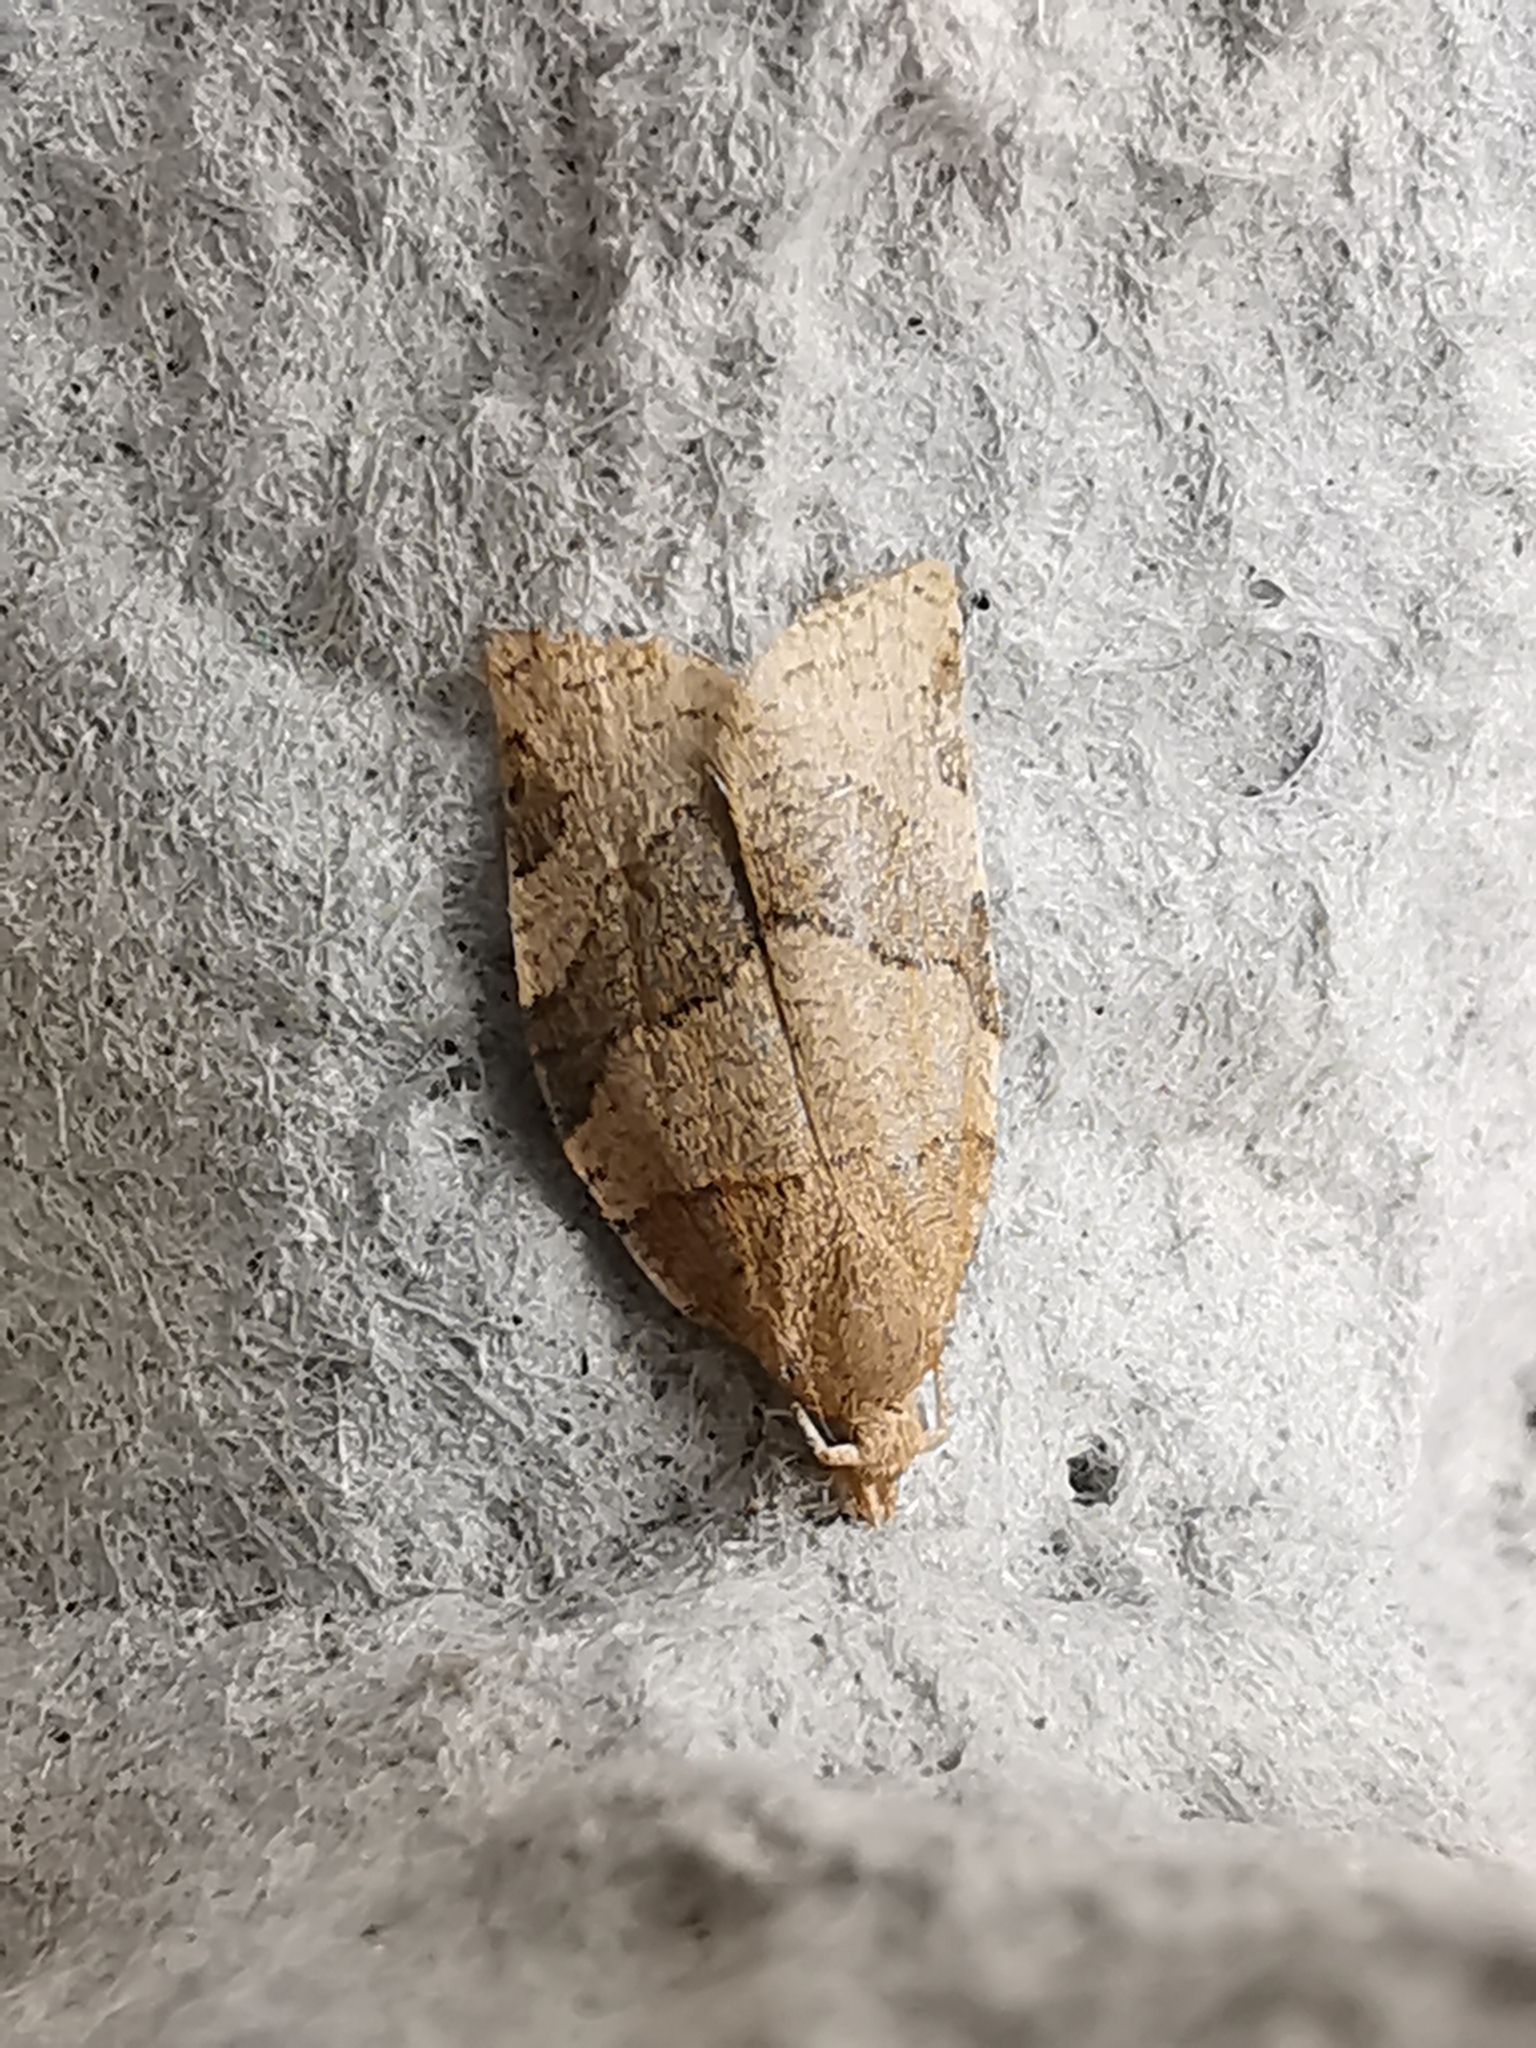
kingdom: Animalia
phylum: Arthropoda
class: Insecta
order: Lepidoptera
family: Tortricidae
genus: Pandemis
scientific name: Pandemis cerasana
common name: Barred fruit-tree tortrix
